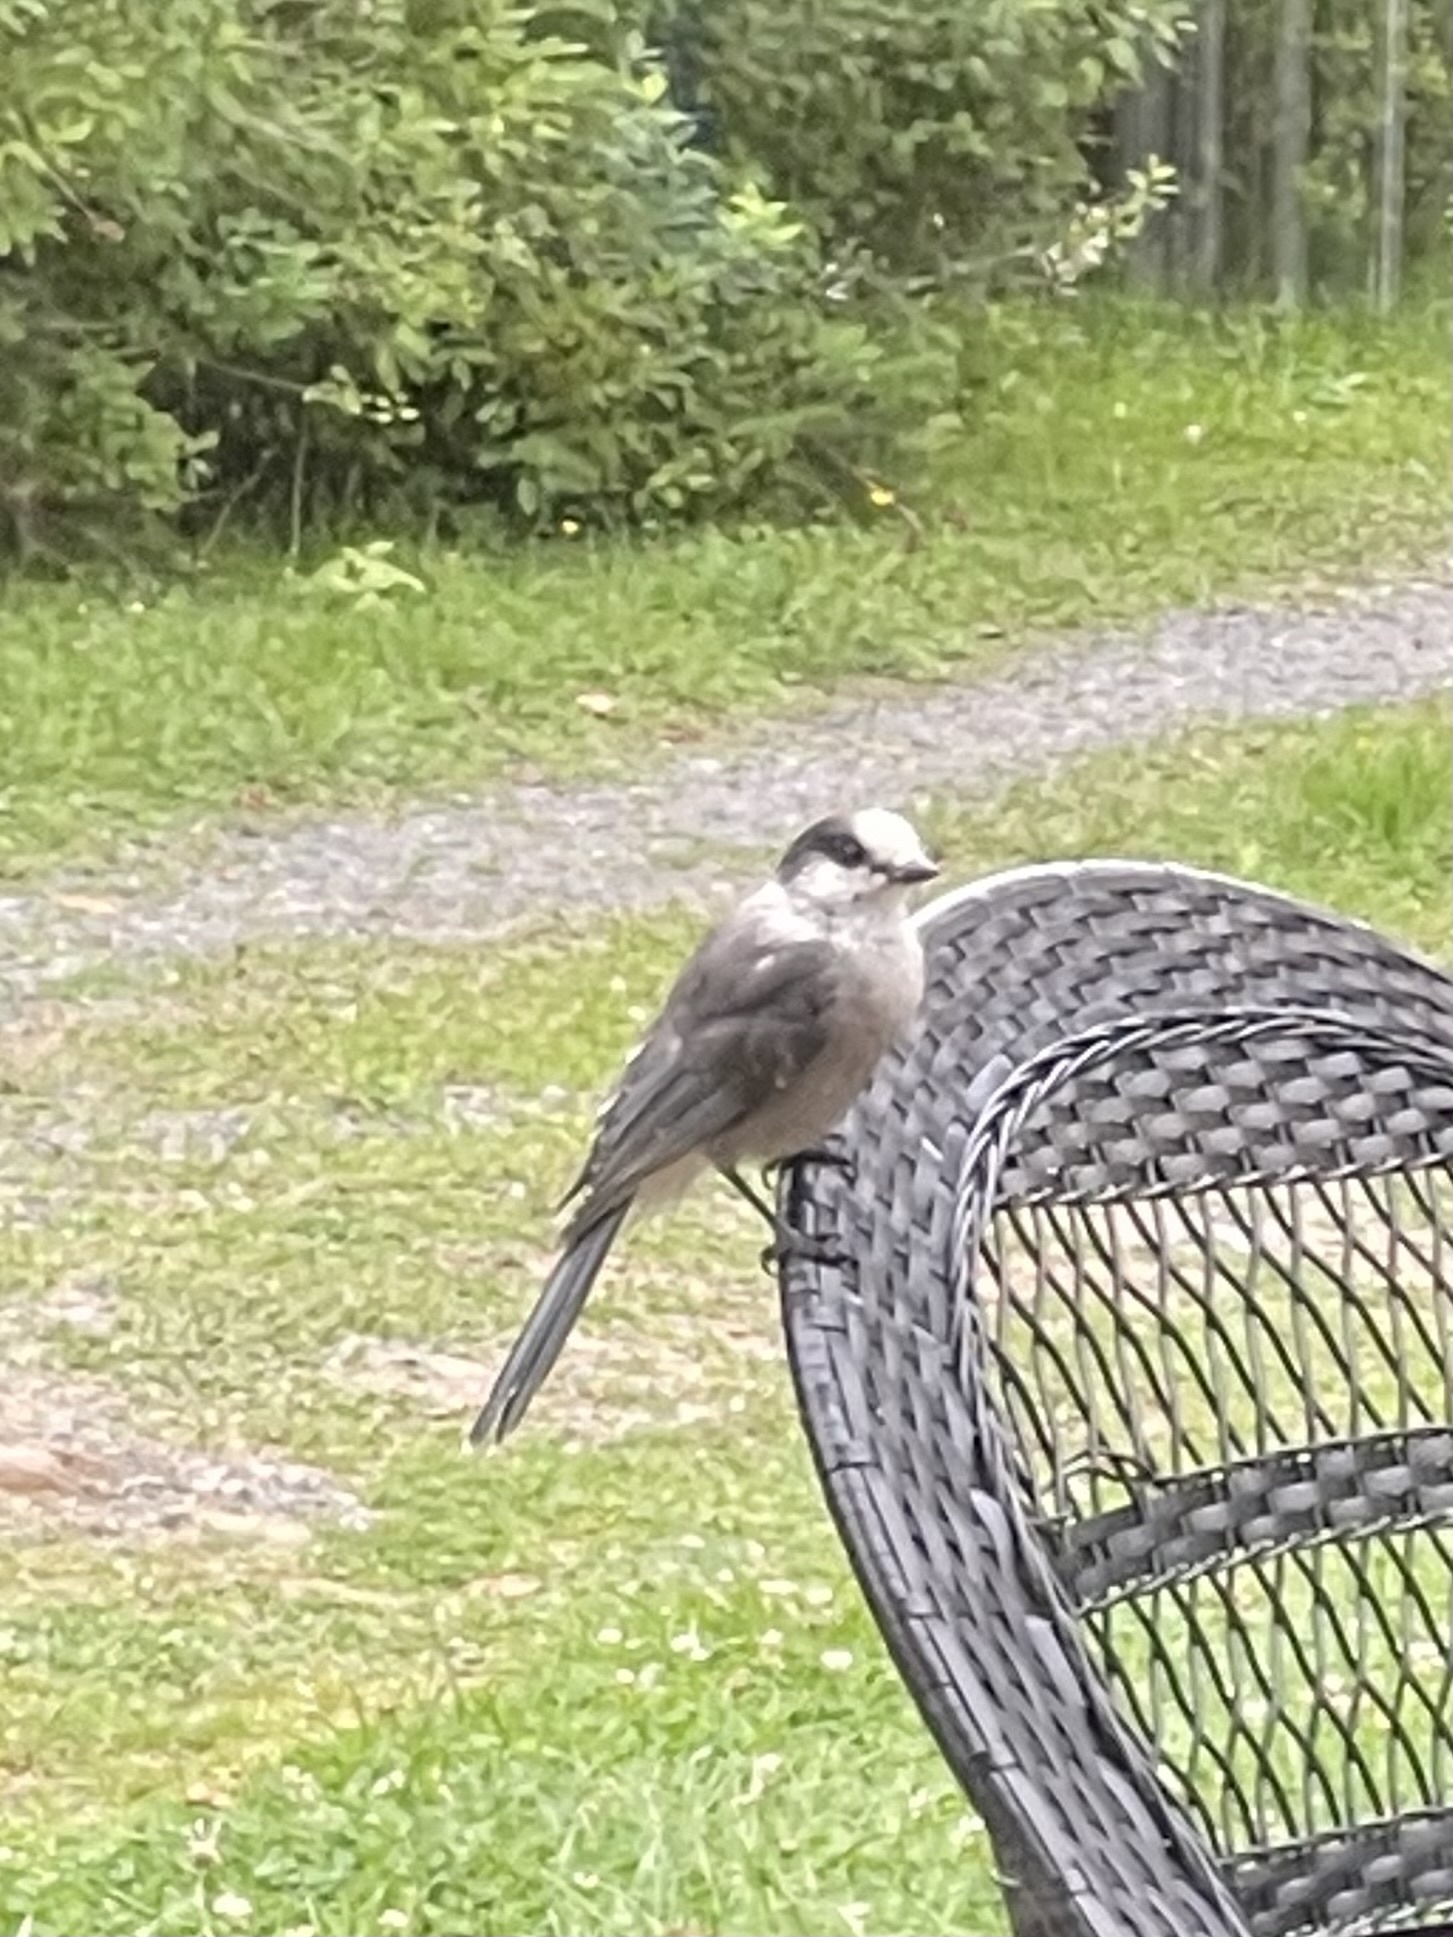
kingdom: Animalia
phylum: Chordata
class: Aves
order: Passeriformes
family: Corvidae
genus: Perisoreus
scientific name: Perisoreus canadensis
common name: Gray jay
